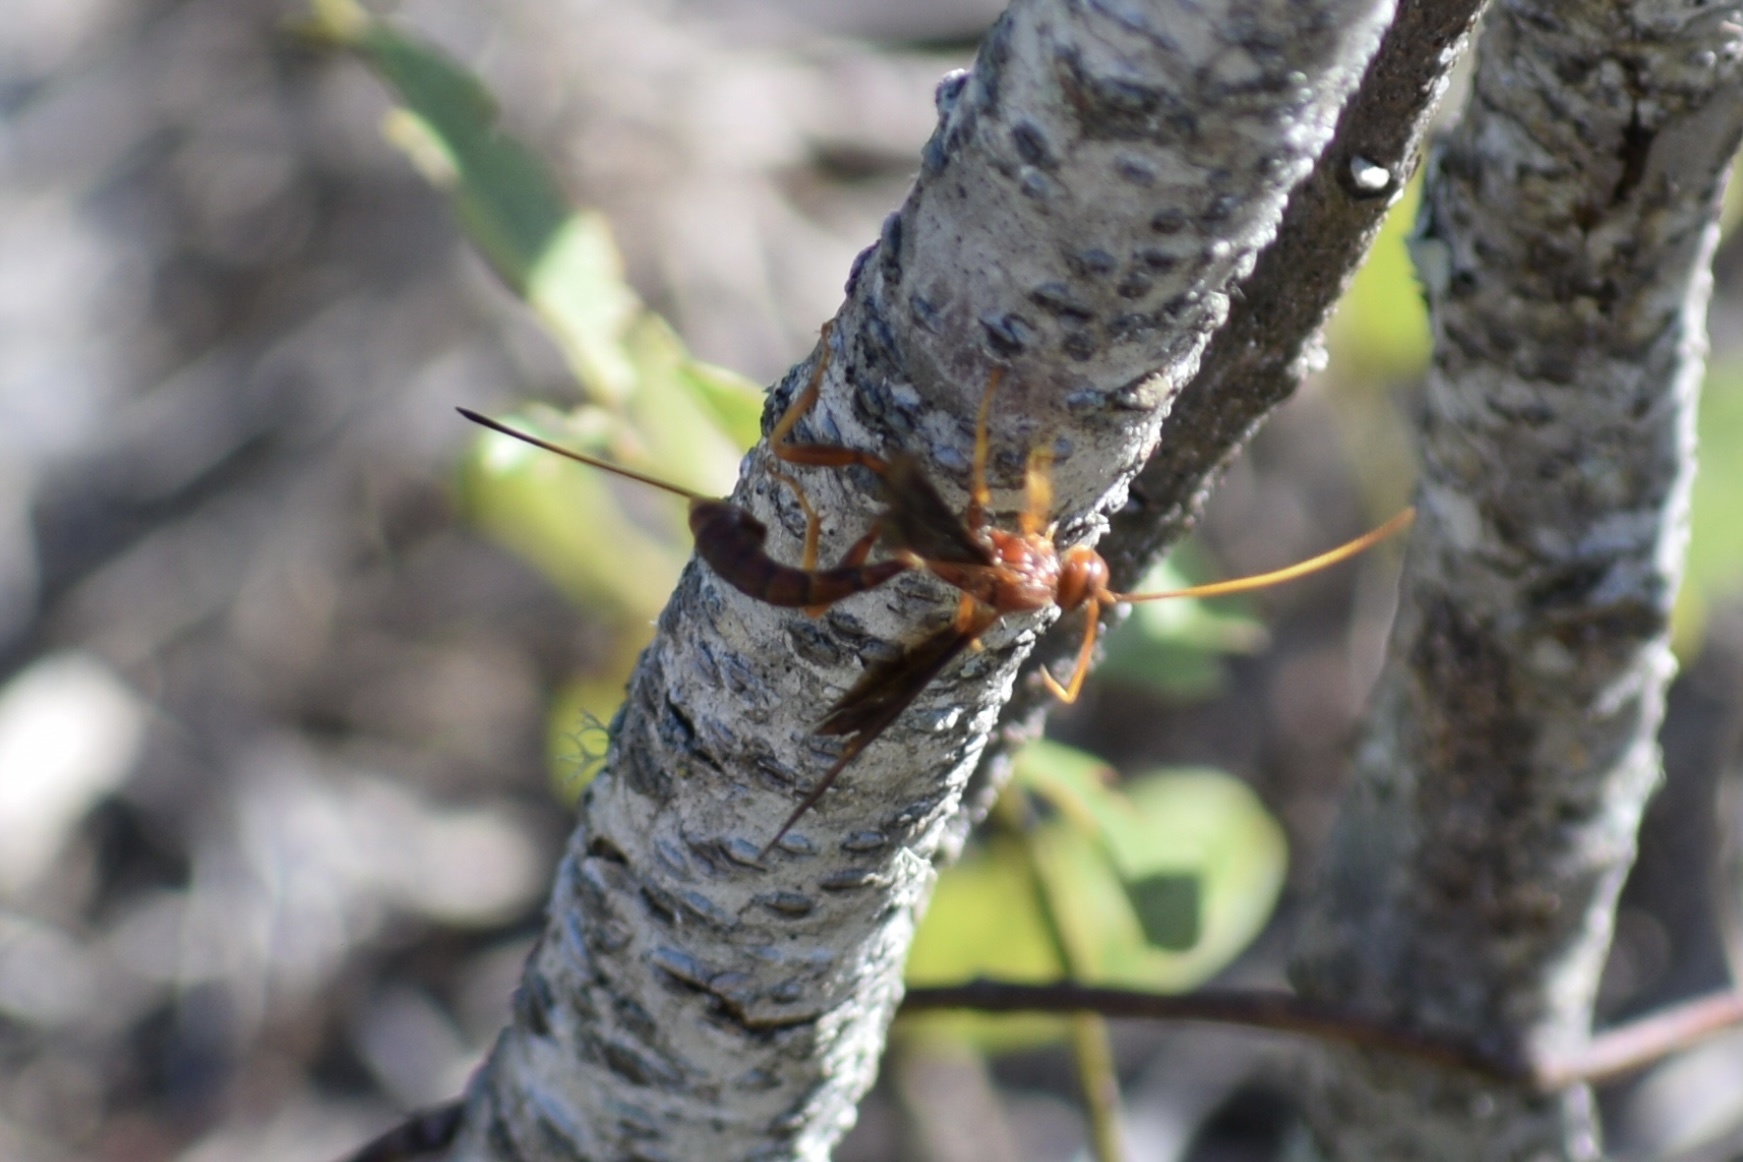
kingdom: Animalia
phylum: Arthropoda
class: Insecta
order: Hymenoptera
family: Ichneumonidae
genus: Labena
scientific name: Labena grallator
